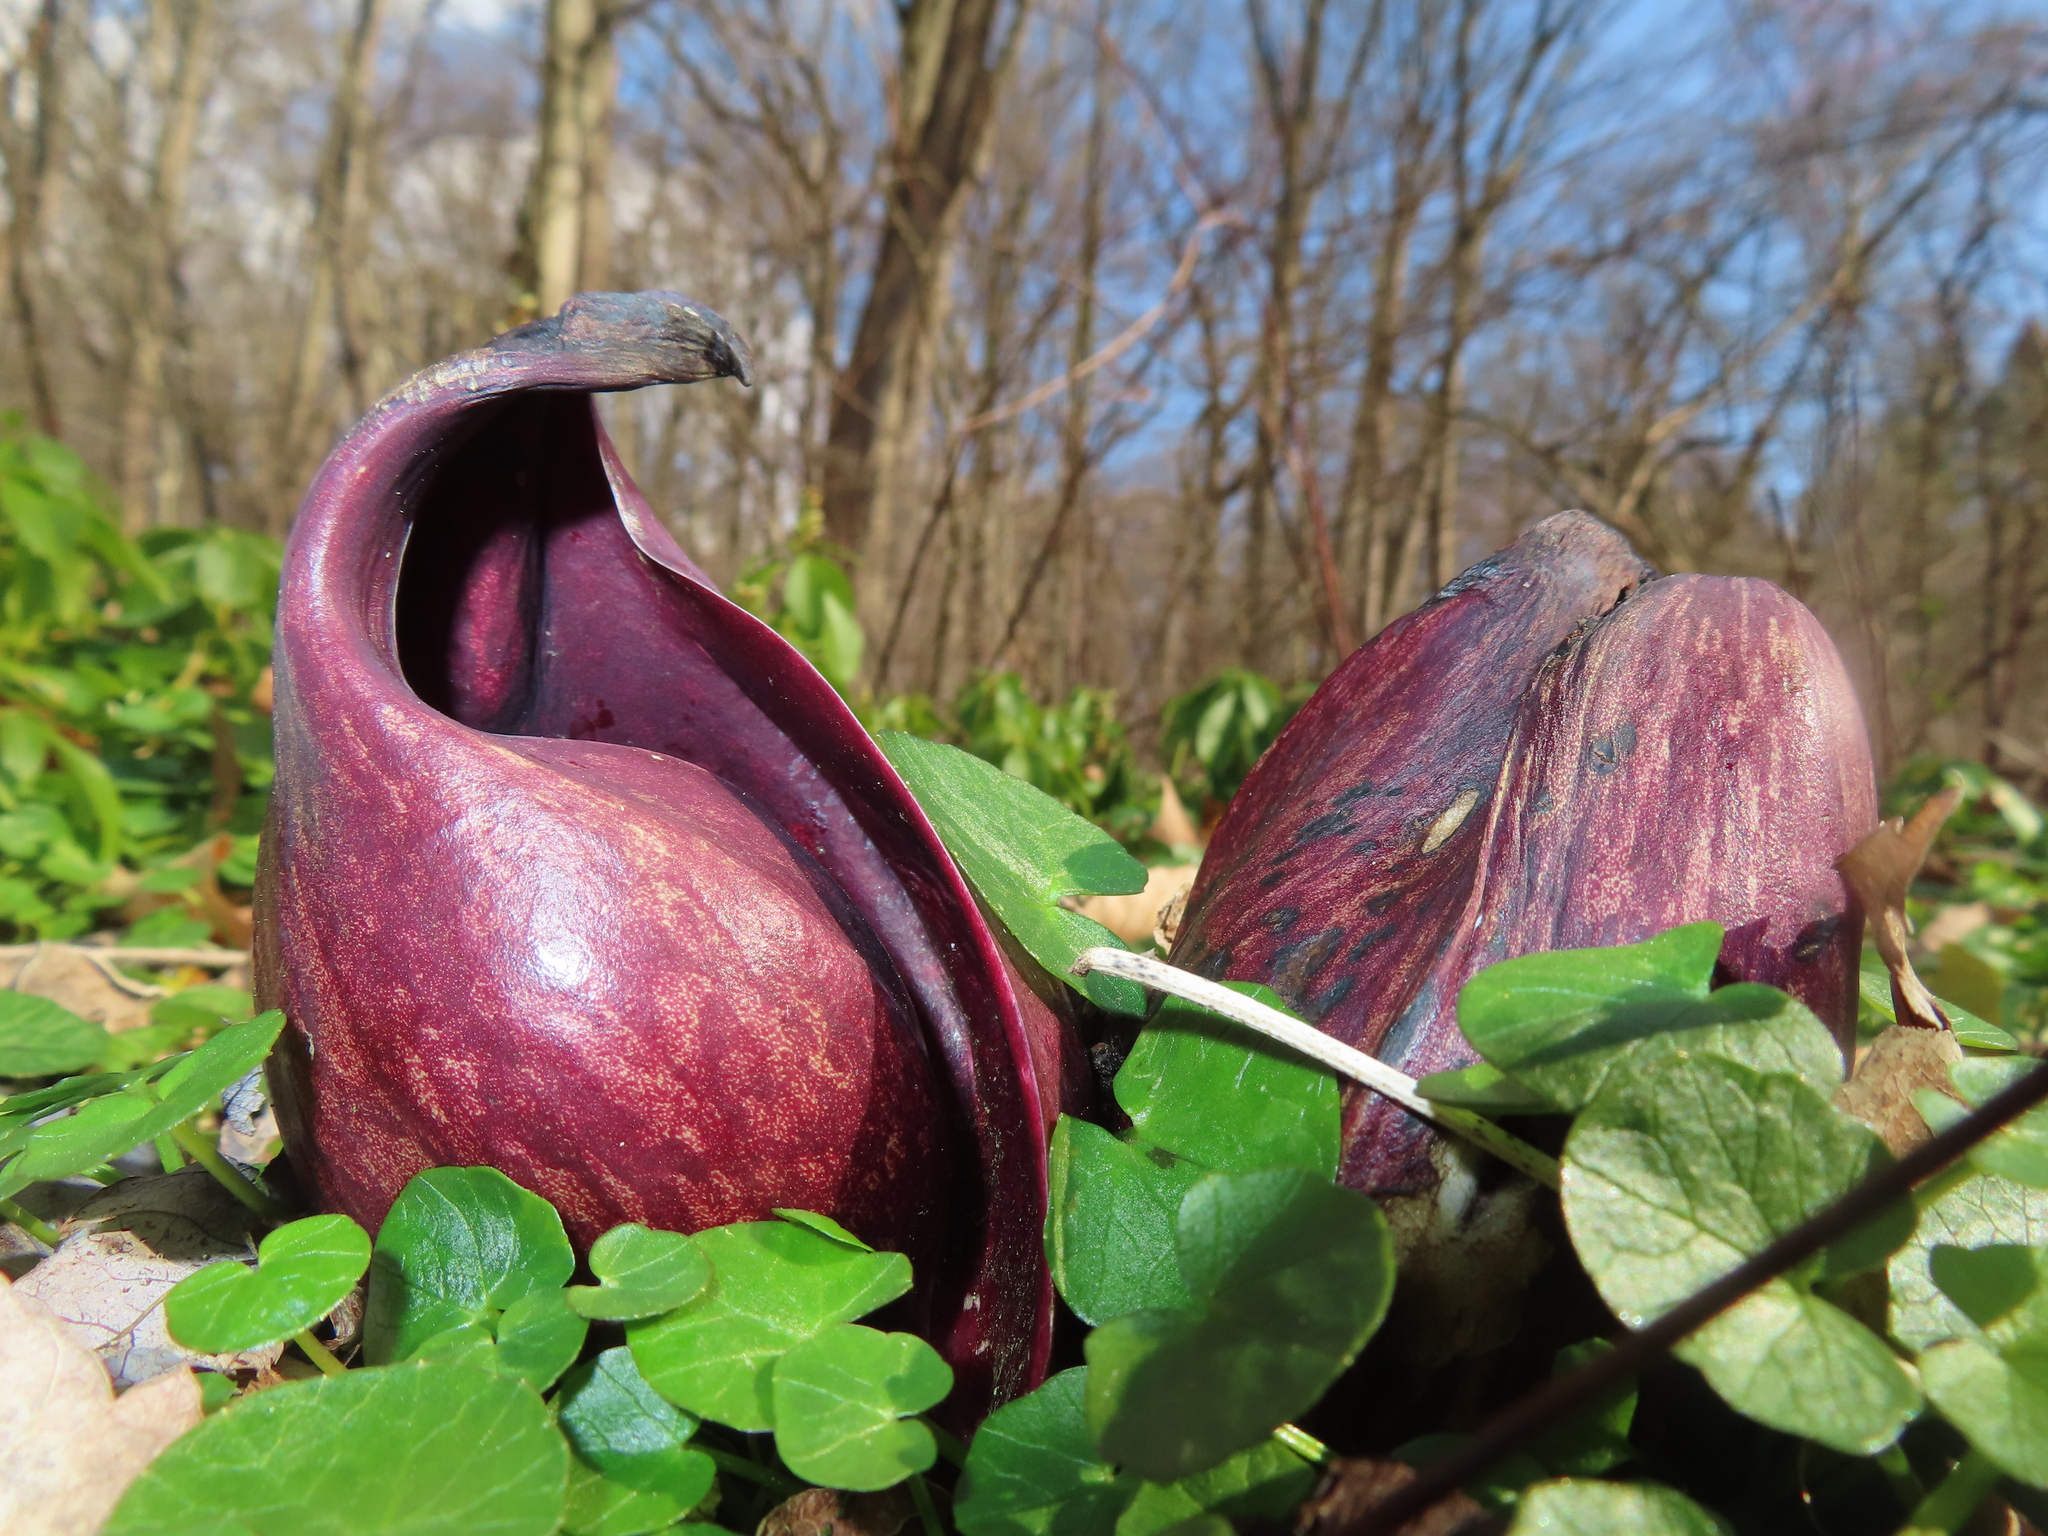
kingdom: Plantae
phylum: Tracheophyta
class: Liliopsida
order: Alismatales
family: Araceae
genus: Symplocarpus
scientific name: Symplocarpus foetidus
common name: Eastern skunk cabbage
